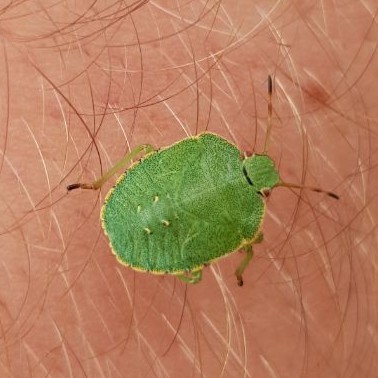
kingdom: Animalia
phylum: Arthropoda
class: Insecta
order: Hemiptera
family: Pentatomidae
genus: Palomena
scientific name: Palomena prasina
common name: Green shieldbug
